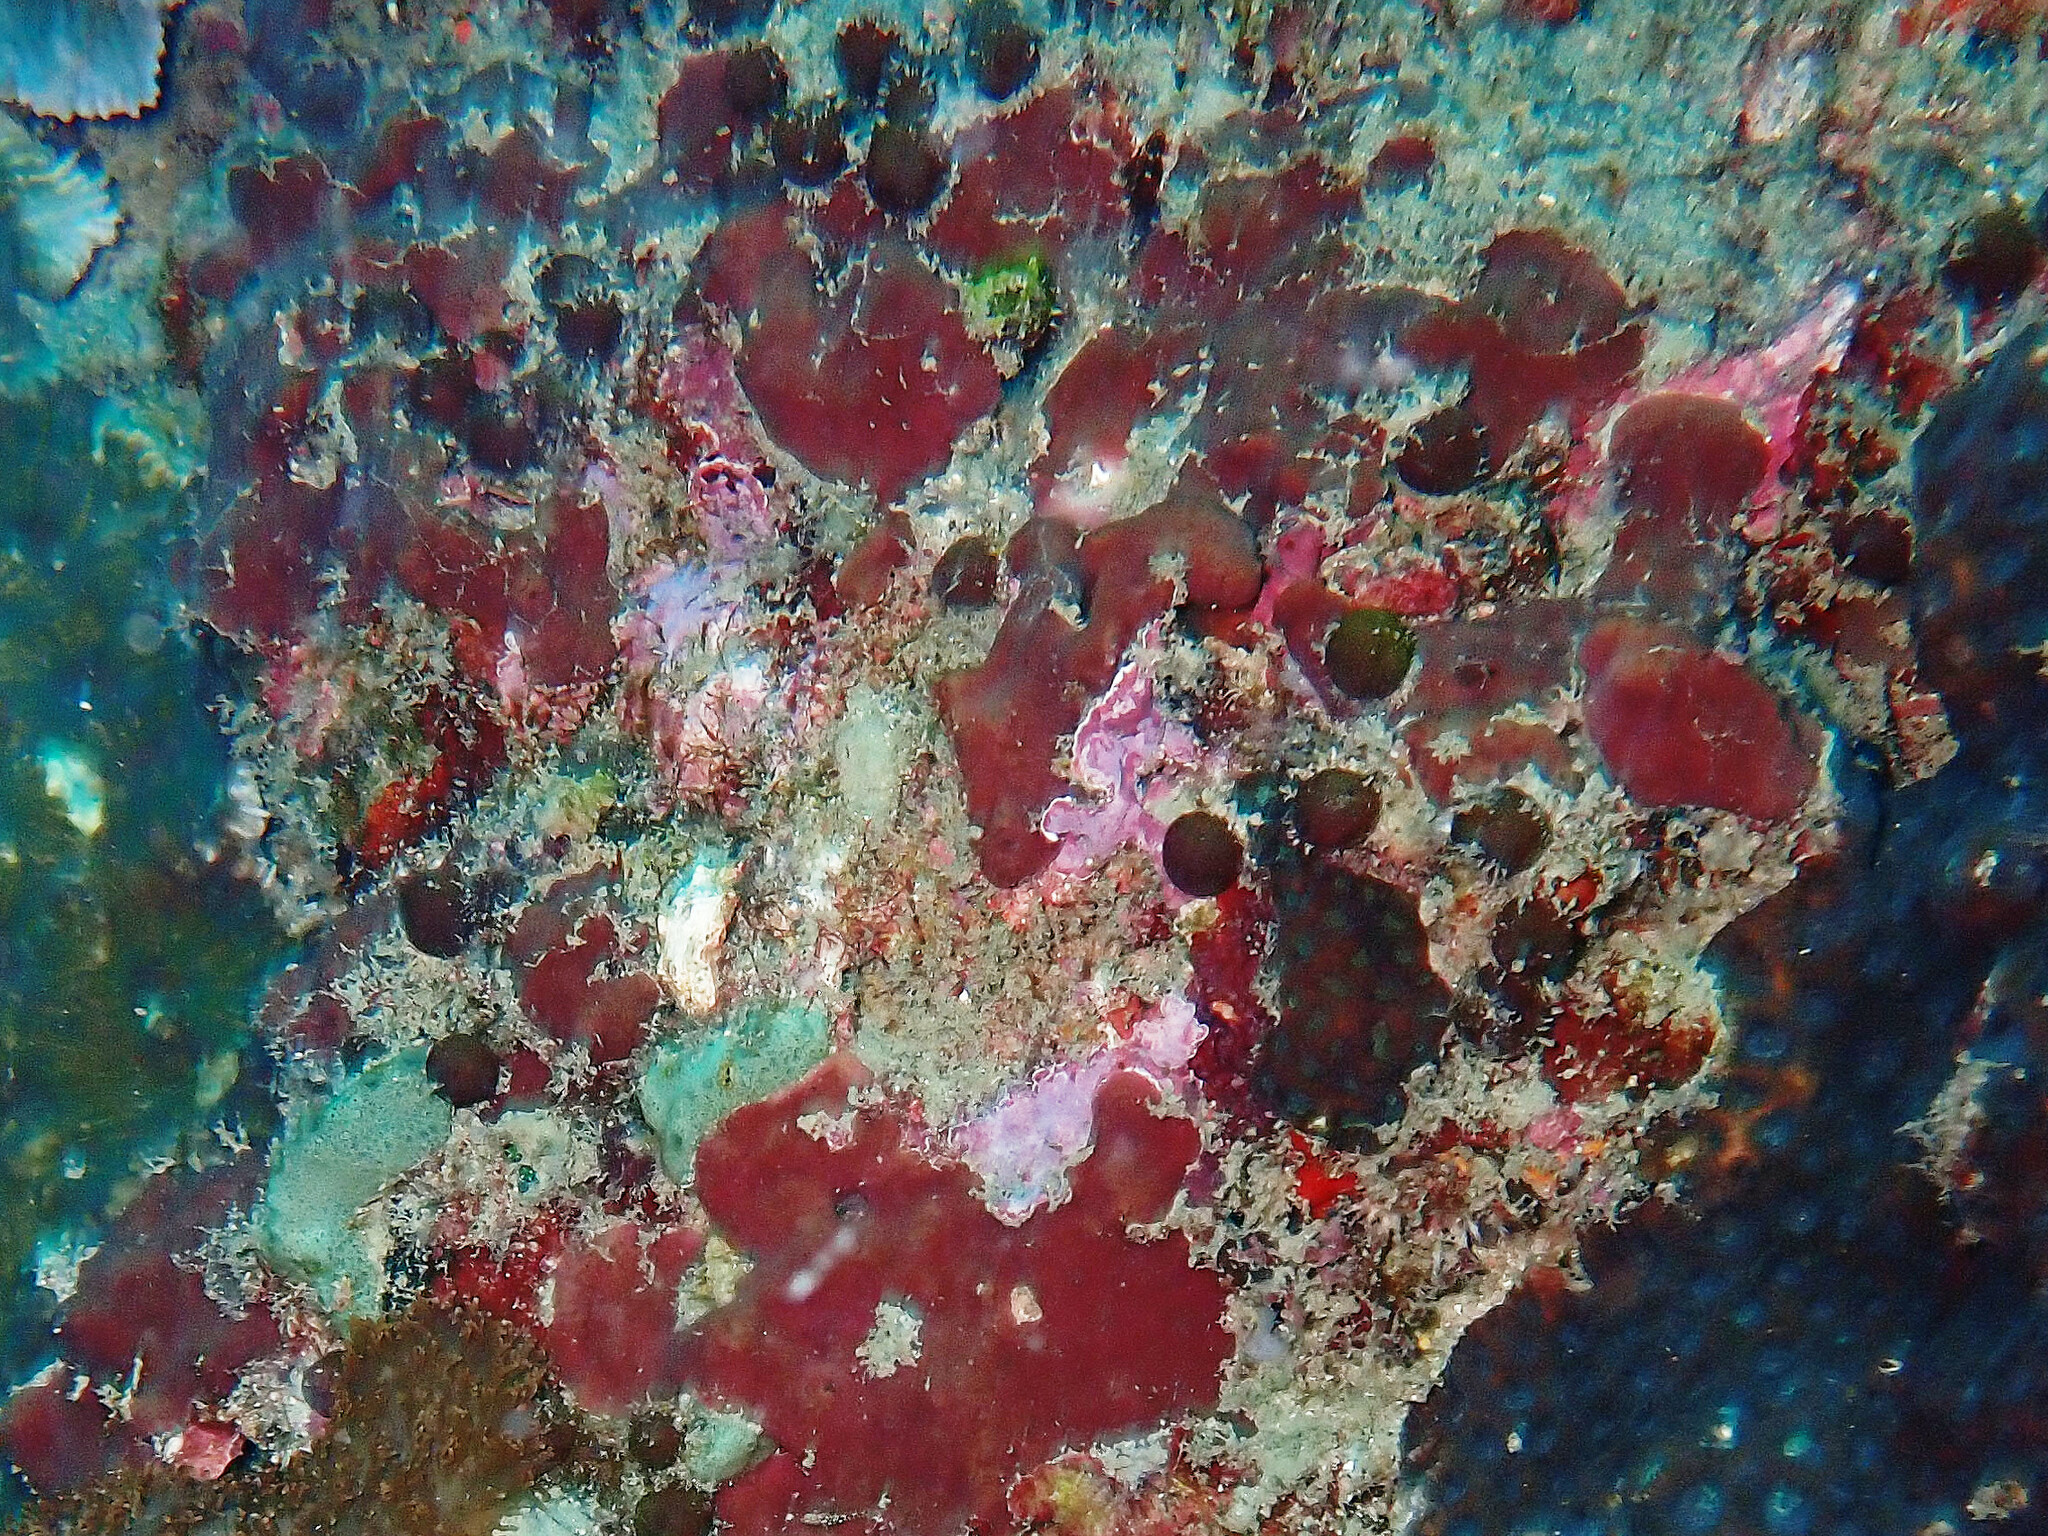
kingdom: Animalia
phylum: Porifera
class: Demospongiae
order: Tetractinellida
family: Ancorinidae
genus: Stelletta
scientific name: Stelletta clavosa
